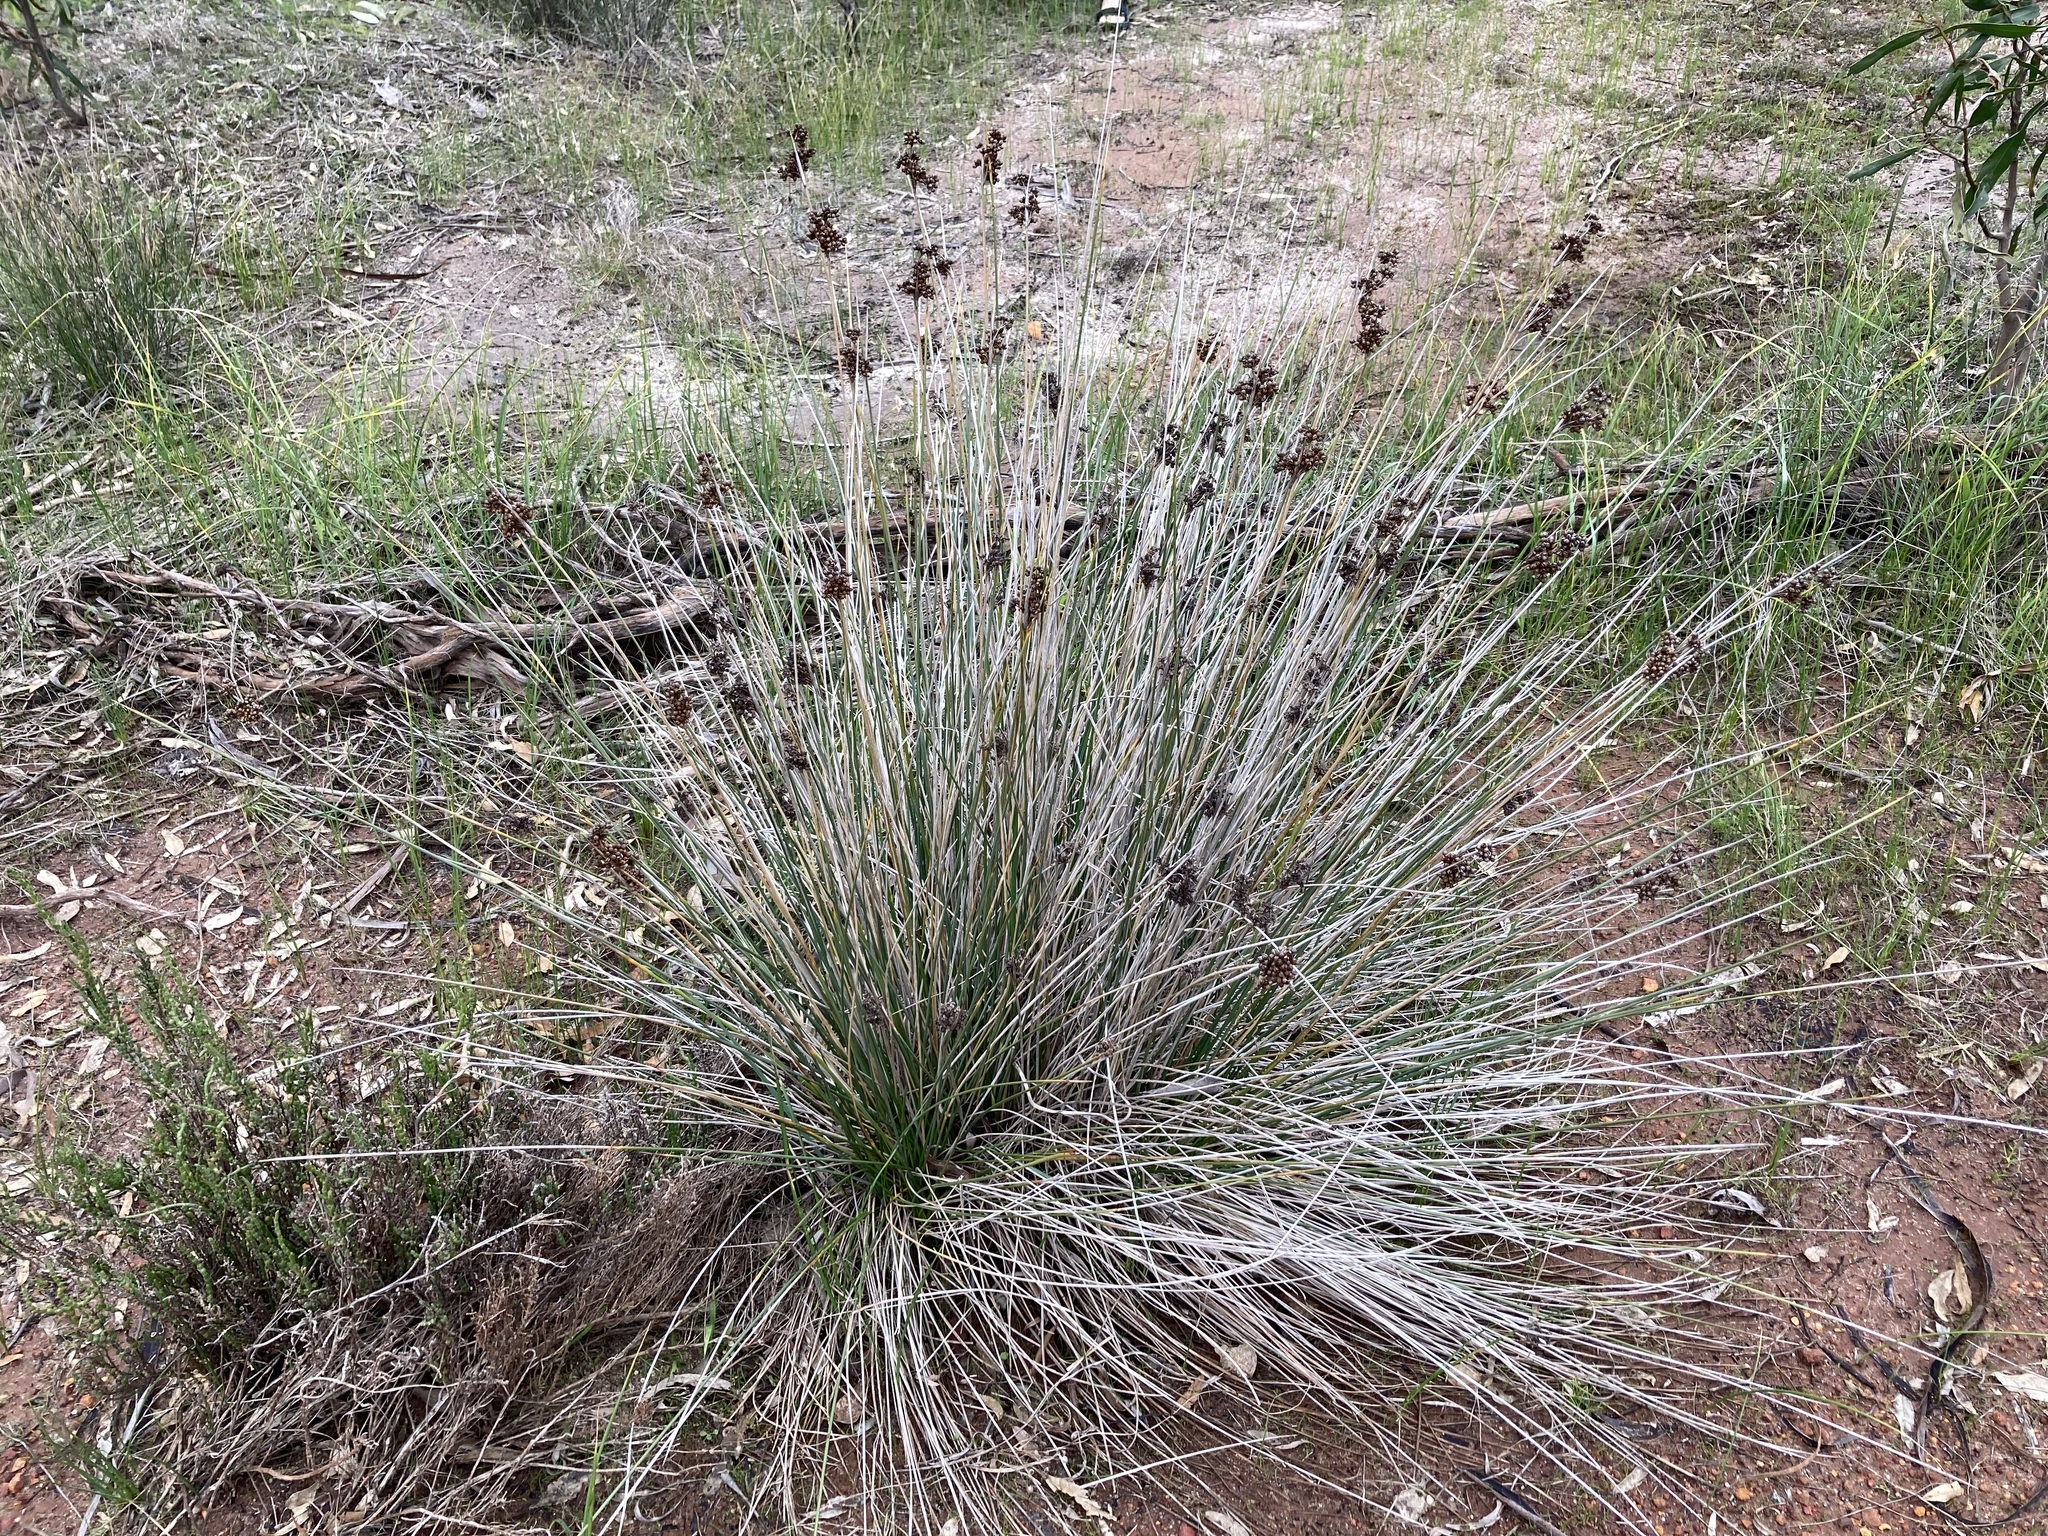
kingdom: Plantae
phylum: Tracheophyta
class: Liliopsida
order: Poales
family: Juncaceae
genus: Juncus
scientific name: Juncus acutus
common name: Sharp rush
